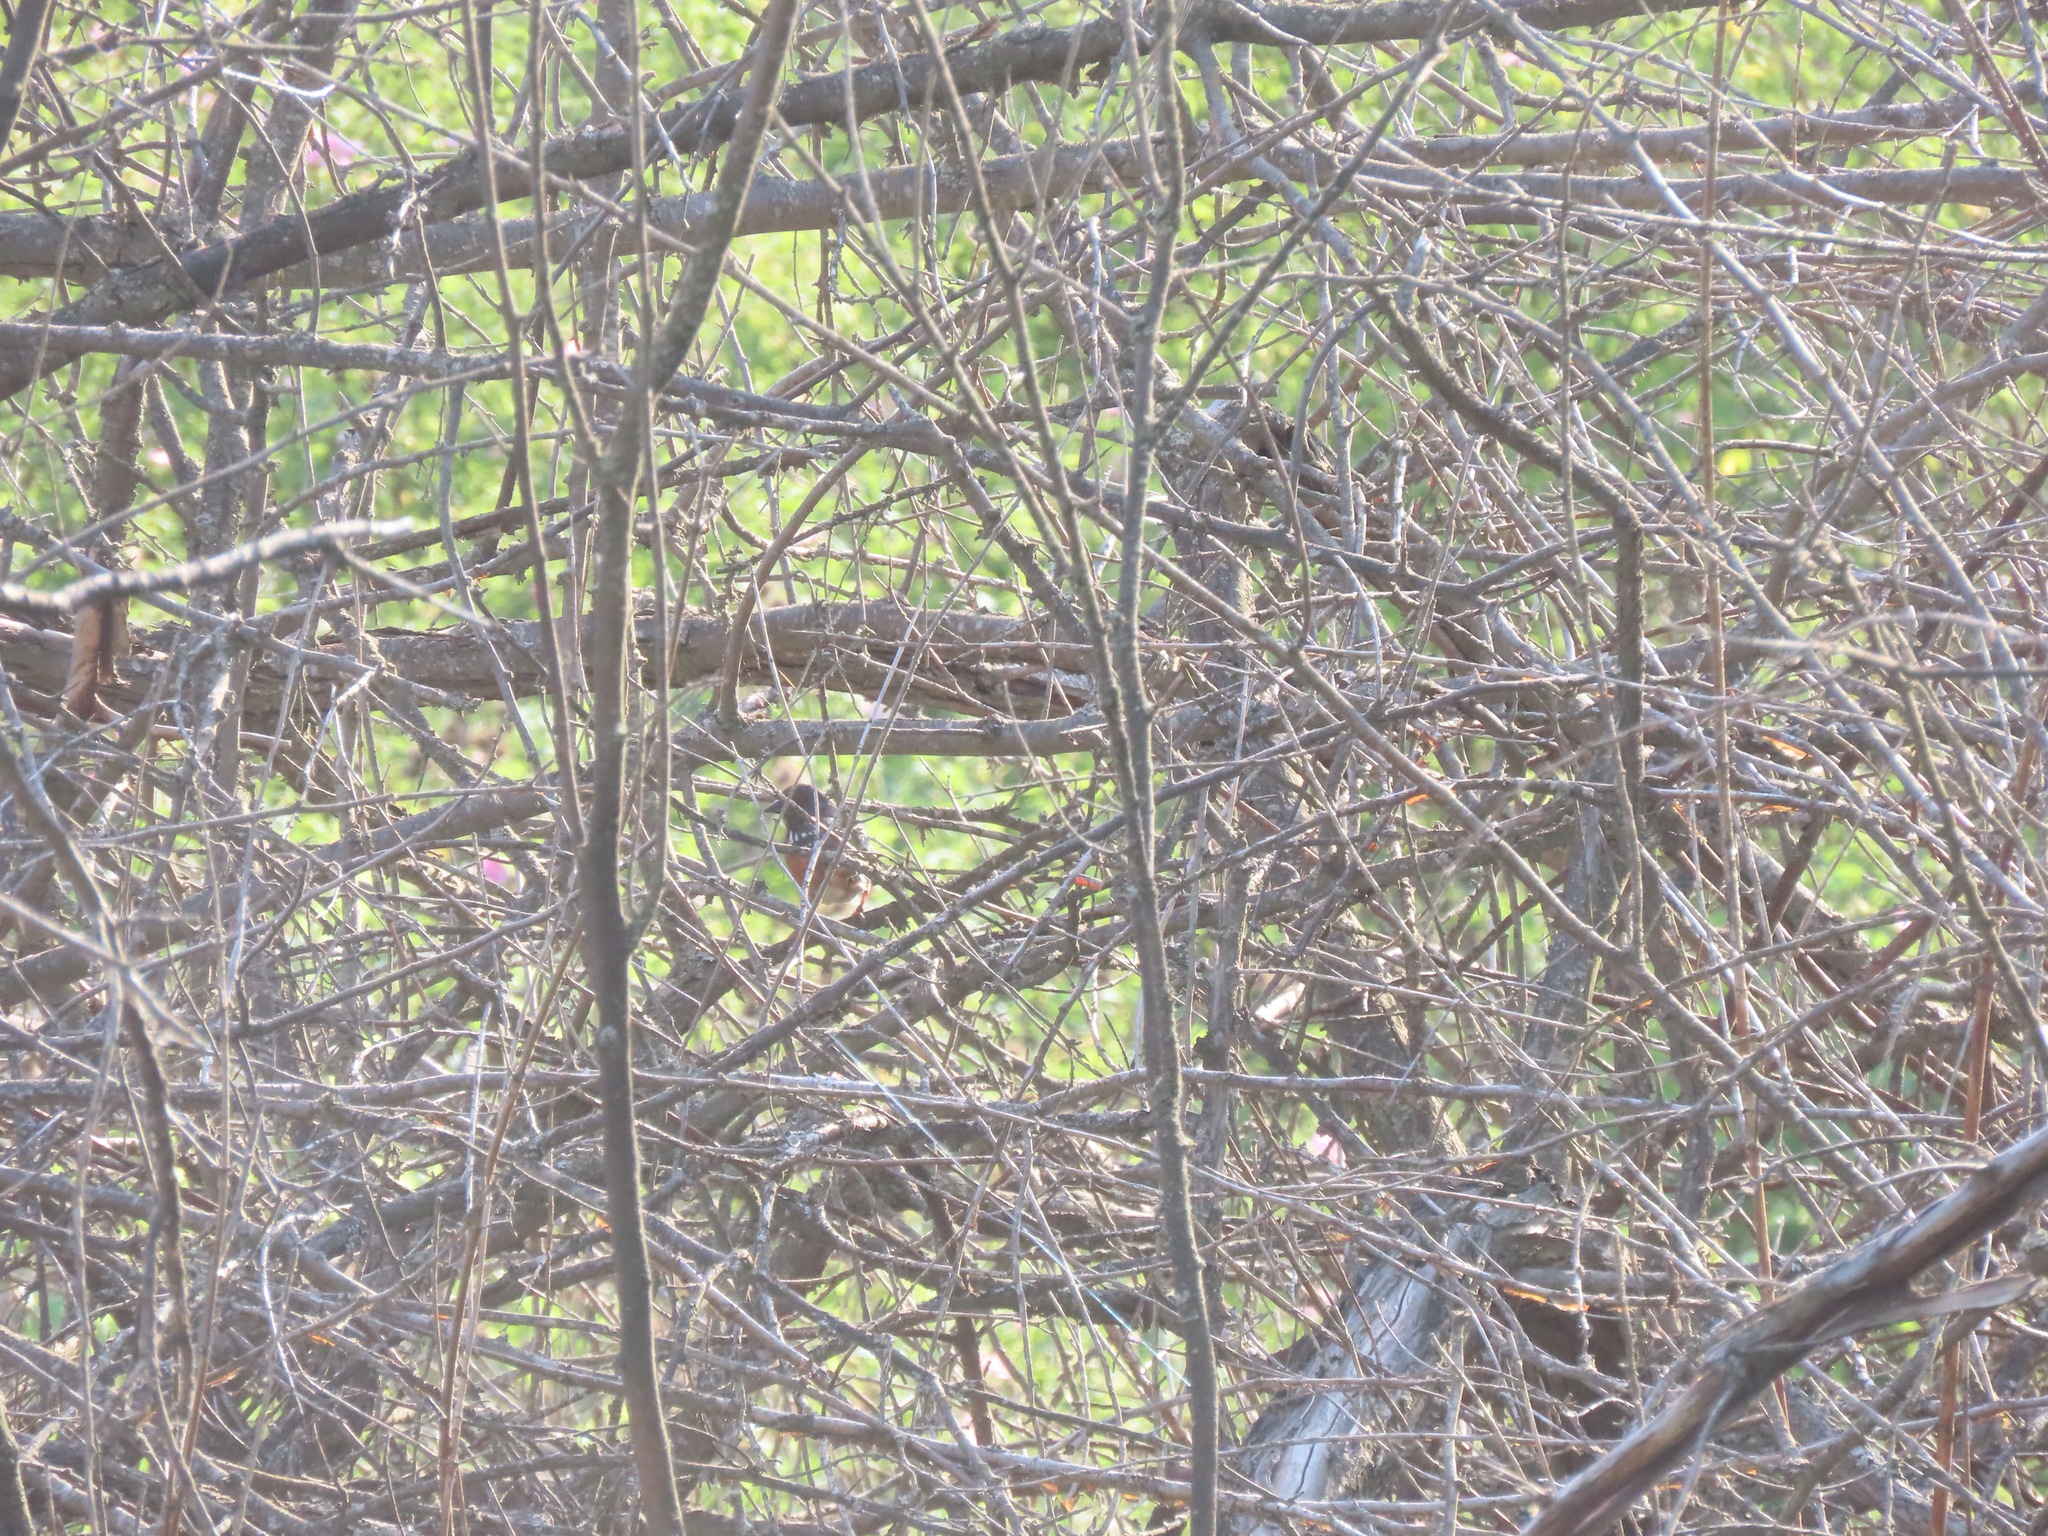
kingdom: Animalia
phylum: Chordata
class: Aves
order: Passeriformes
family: Passerellidae
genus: Pipilo
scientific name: Pipilo maculatus
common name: Spotted towhee
